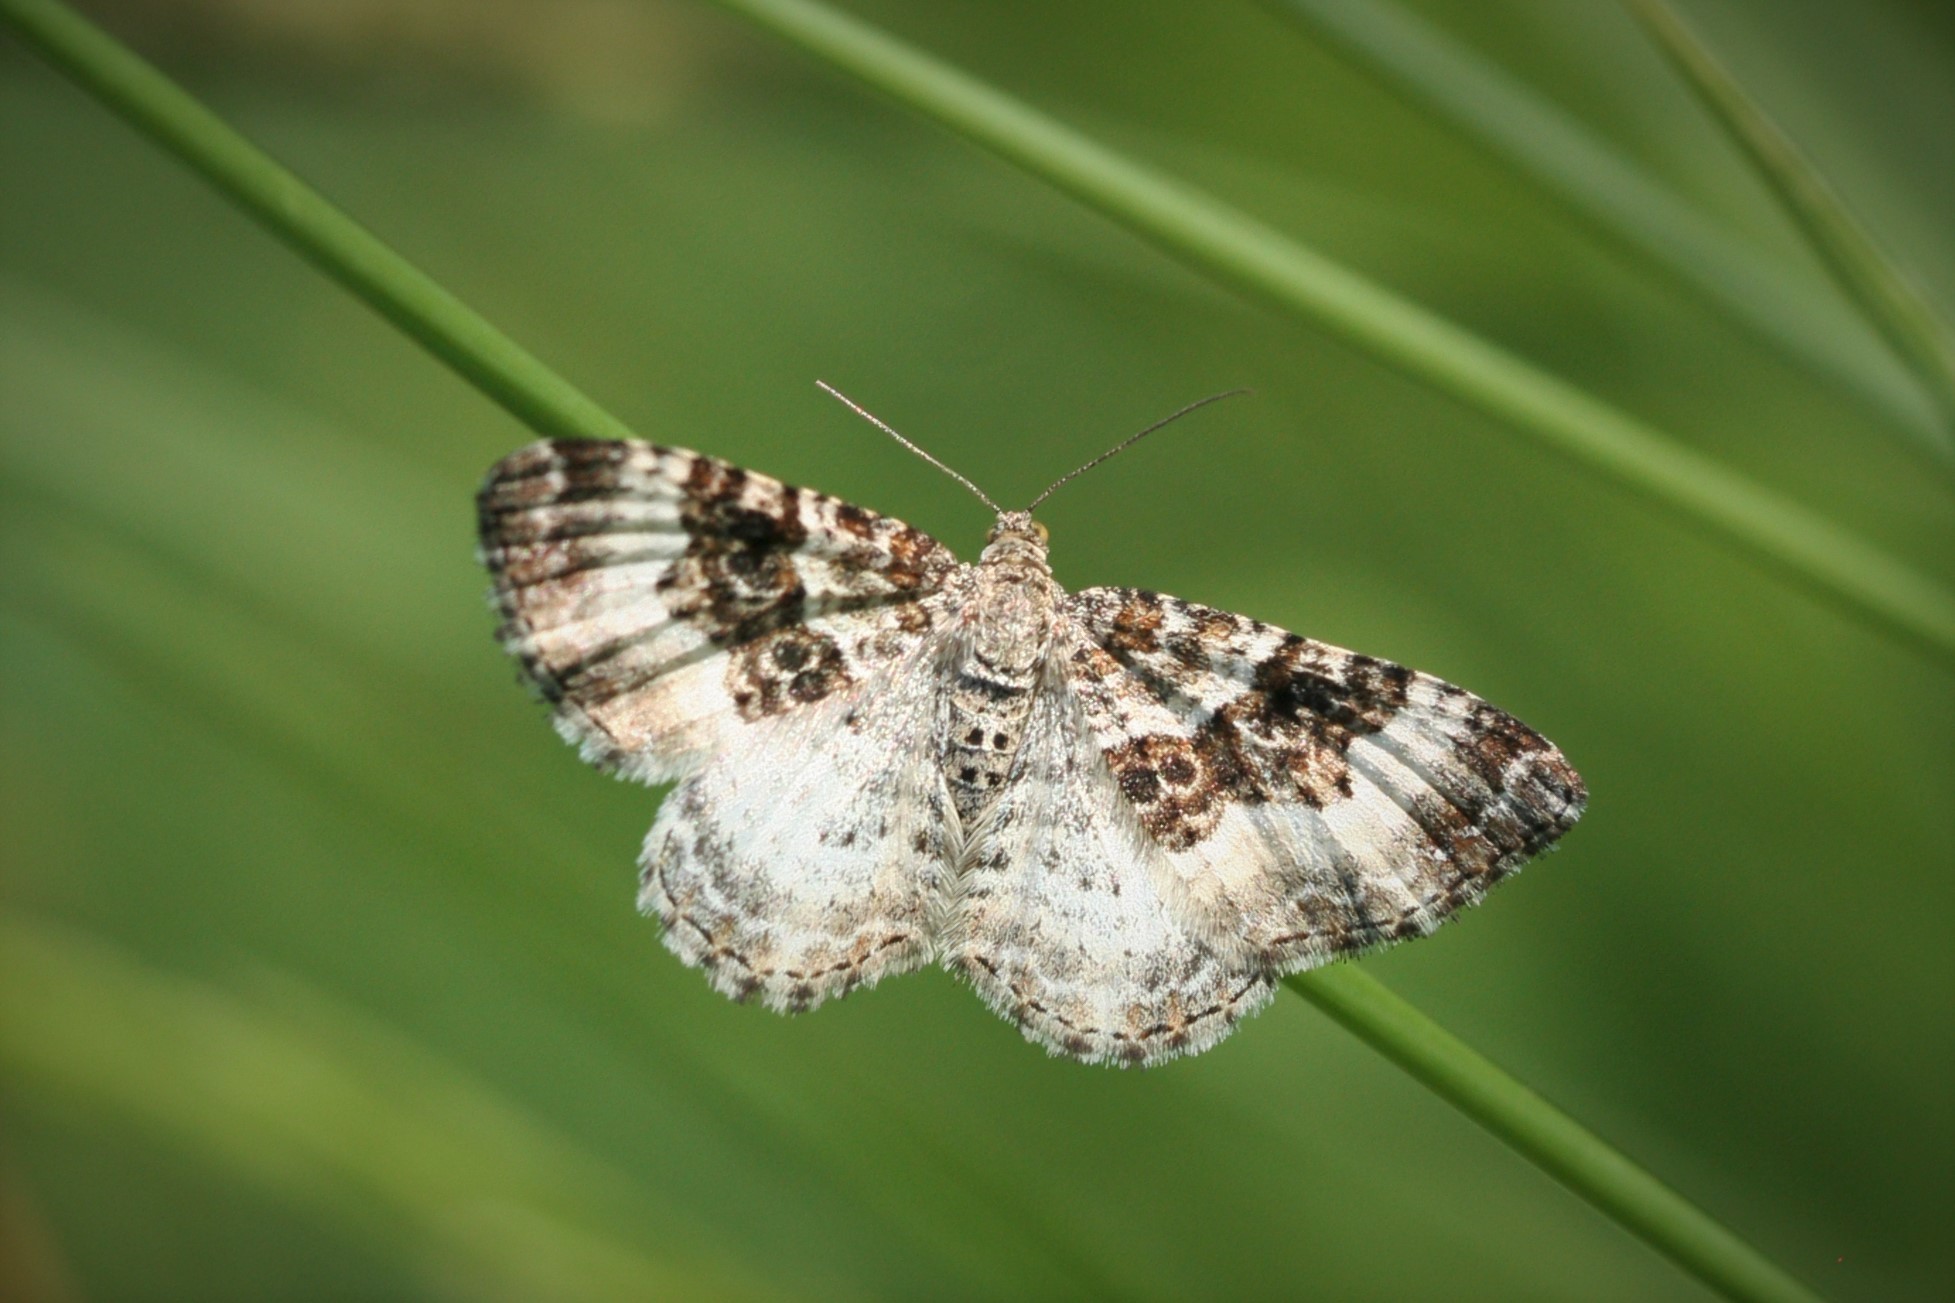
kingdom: Animalia
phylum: Arthropoda
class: Insecta
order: Lepidoptera
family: Geometridae
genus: Epirrhoe
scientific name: Epirrhoe alternata
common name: Common carpet
